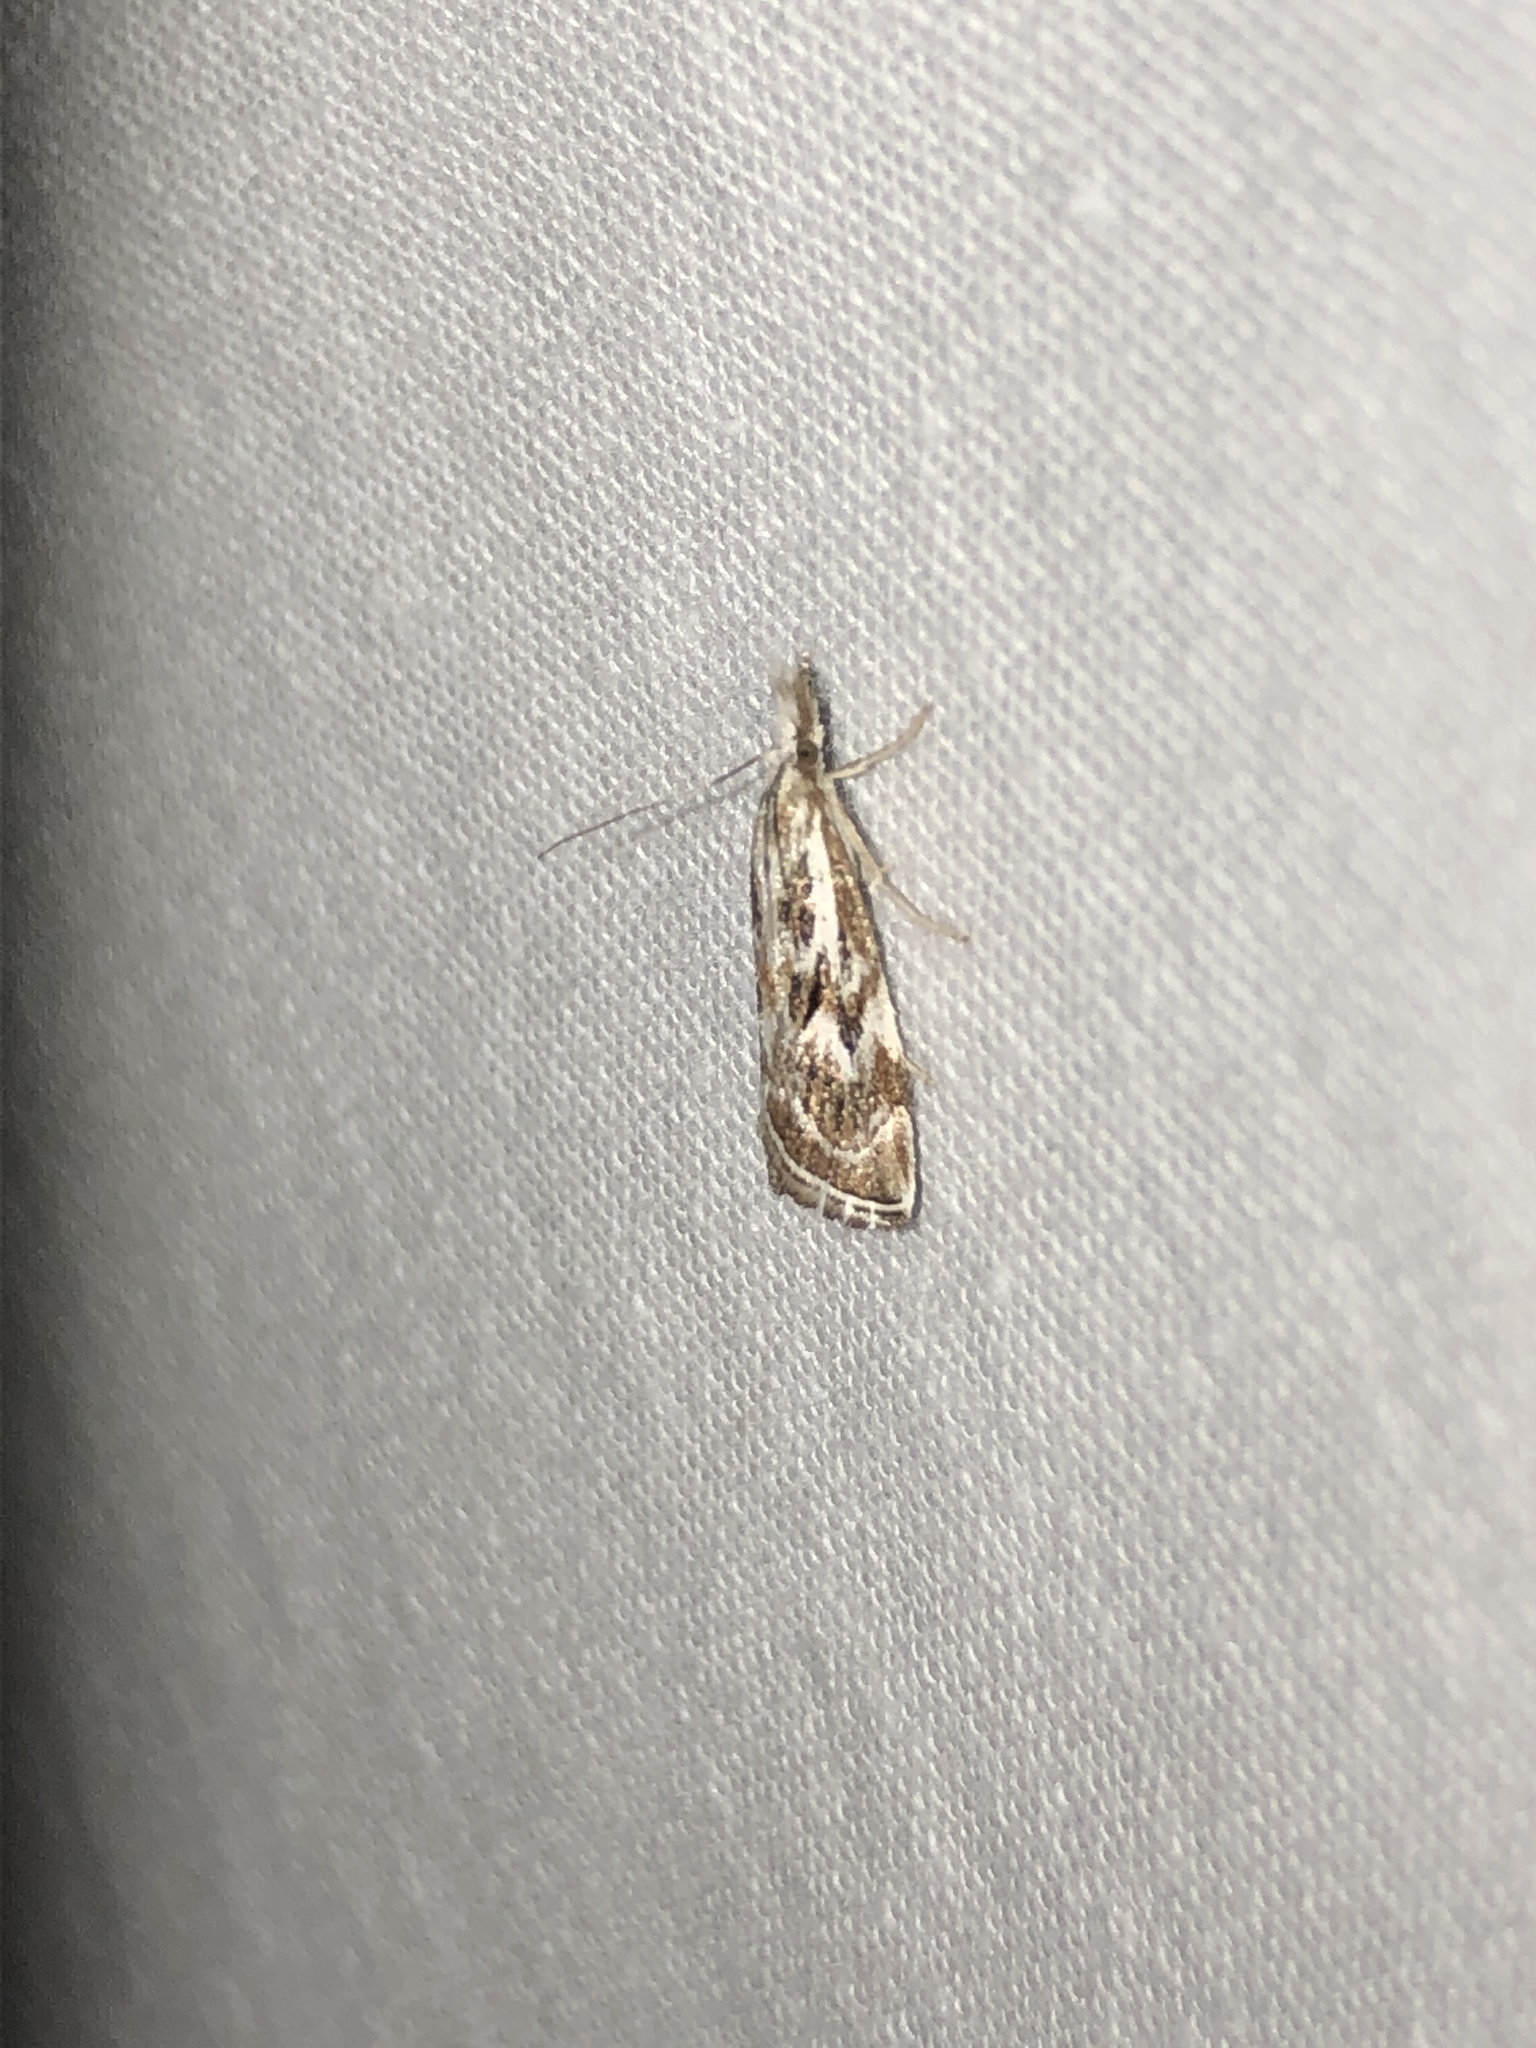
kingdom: Animalia
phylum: Arthropoda
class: Insecta
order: Lepidoptera
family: Crambidae
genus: Catoptria
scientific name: Catoptria oregonicus
